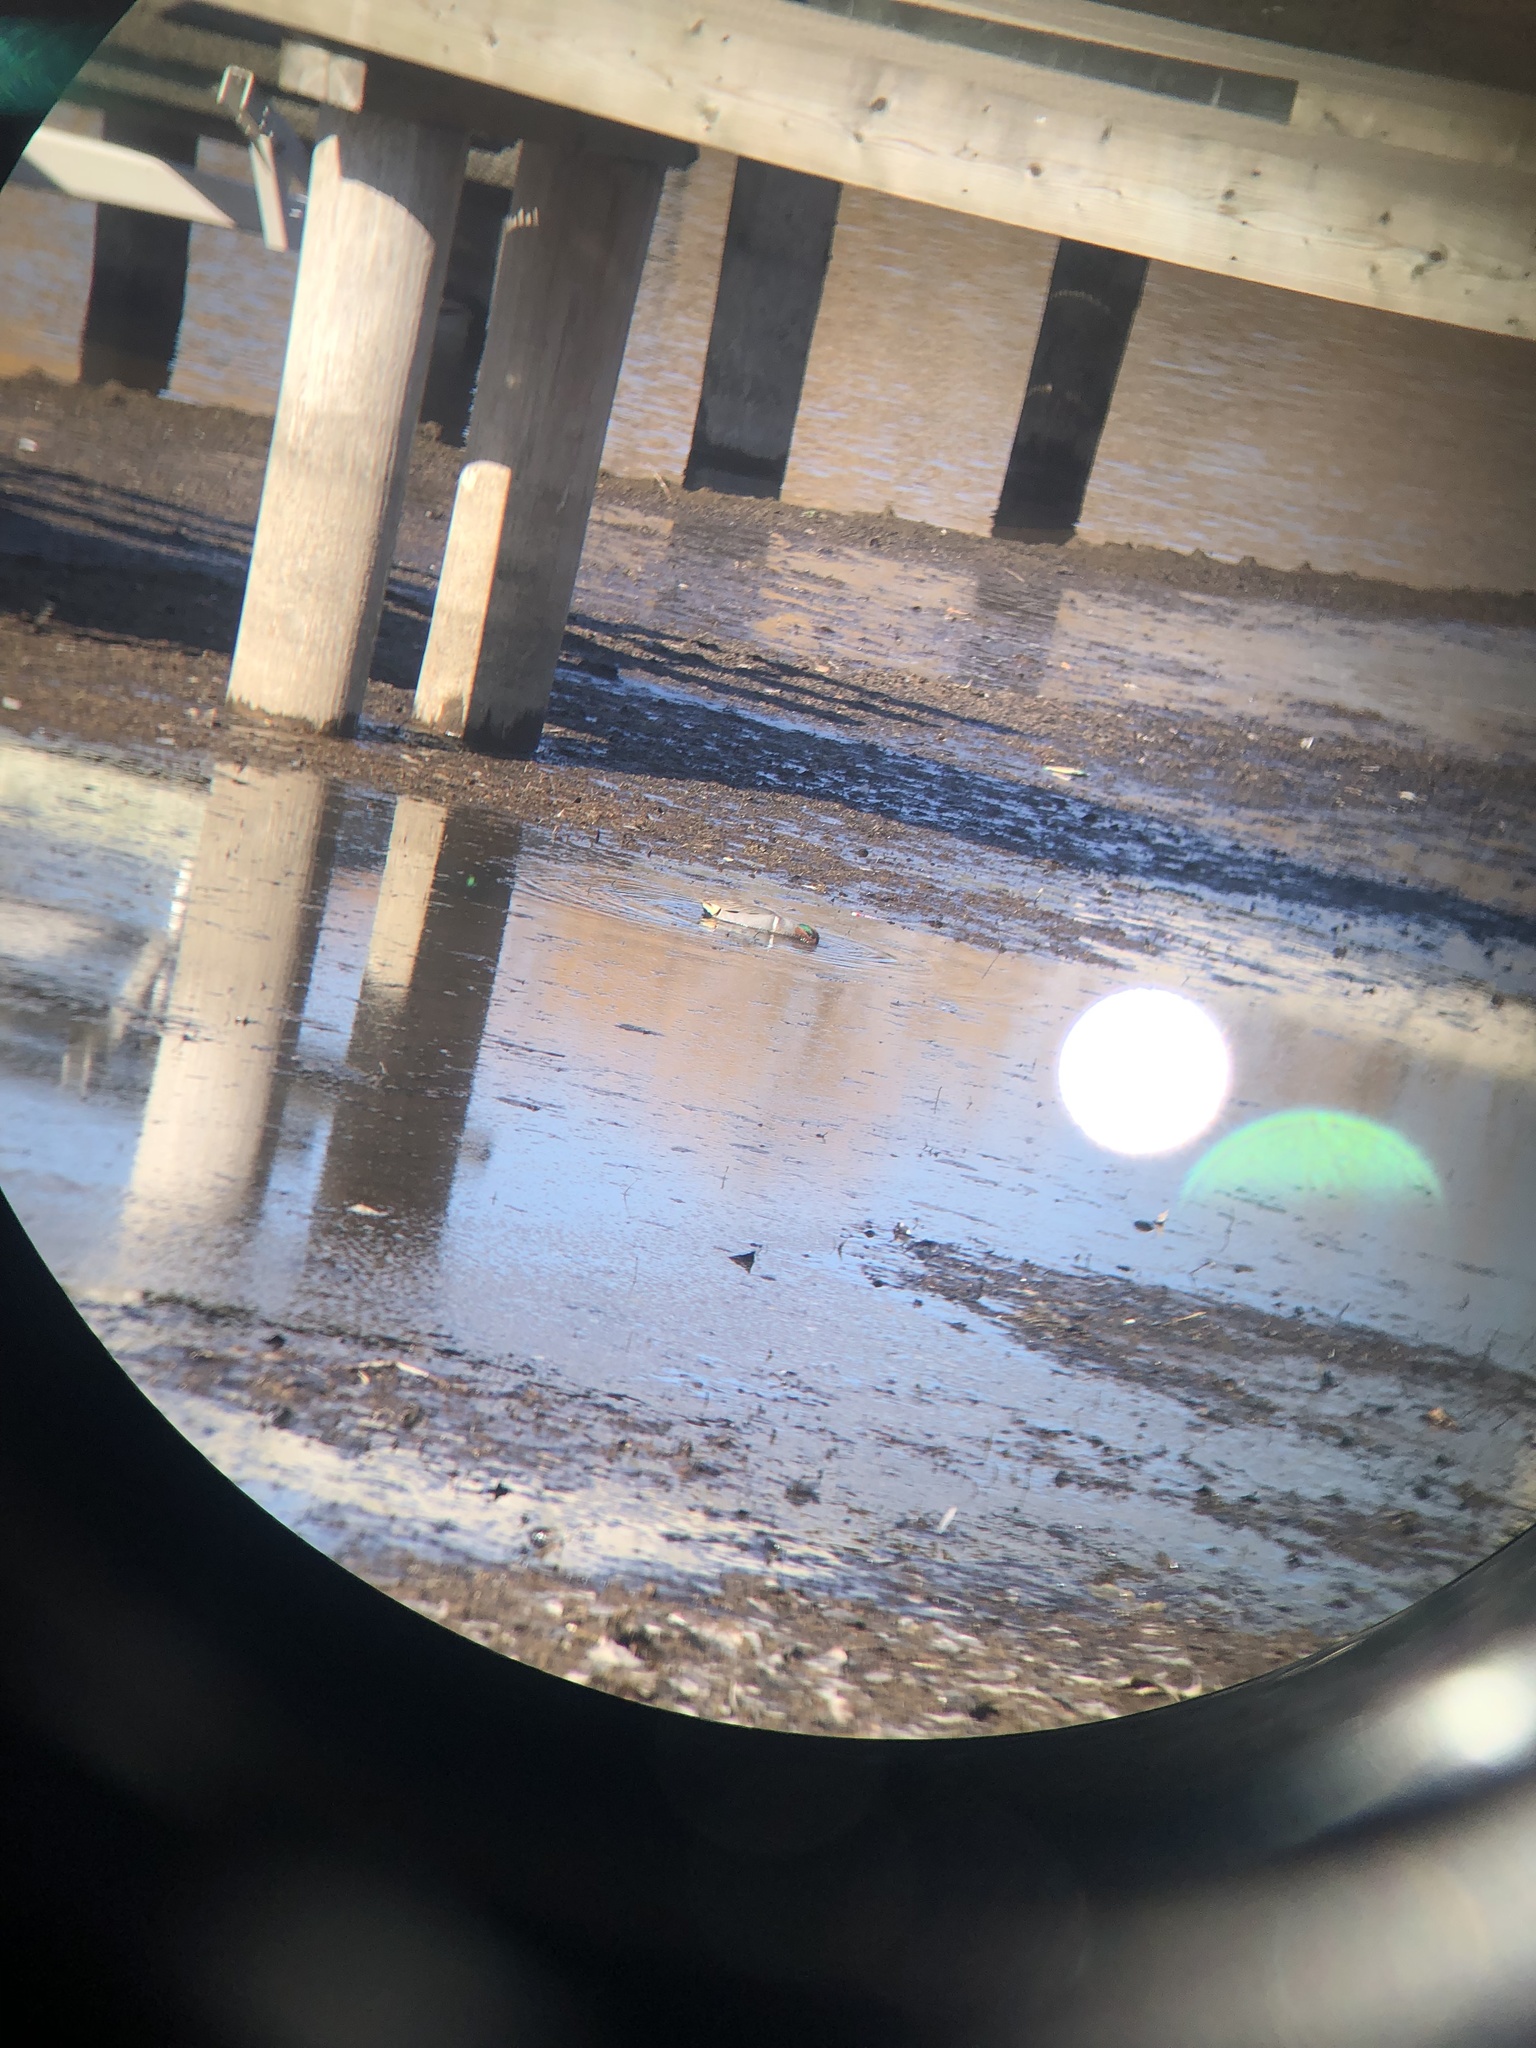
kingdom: Animalia
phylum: Chordata
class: Aves
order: Anseriformes
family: Anatidae
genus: Anas
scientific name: Anas crecca
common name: Eurasian teal
